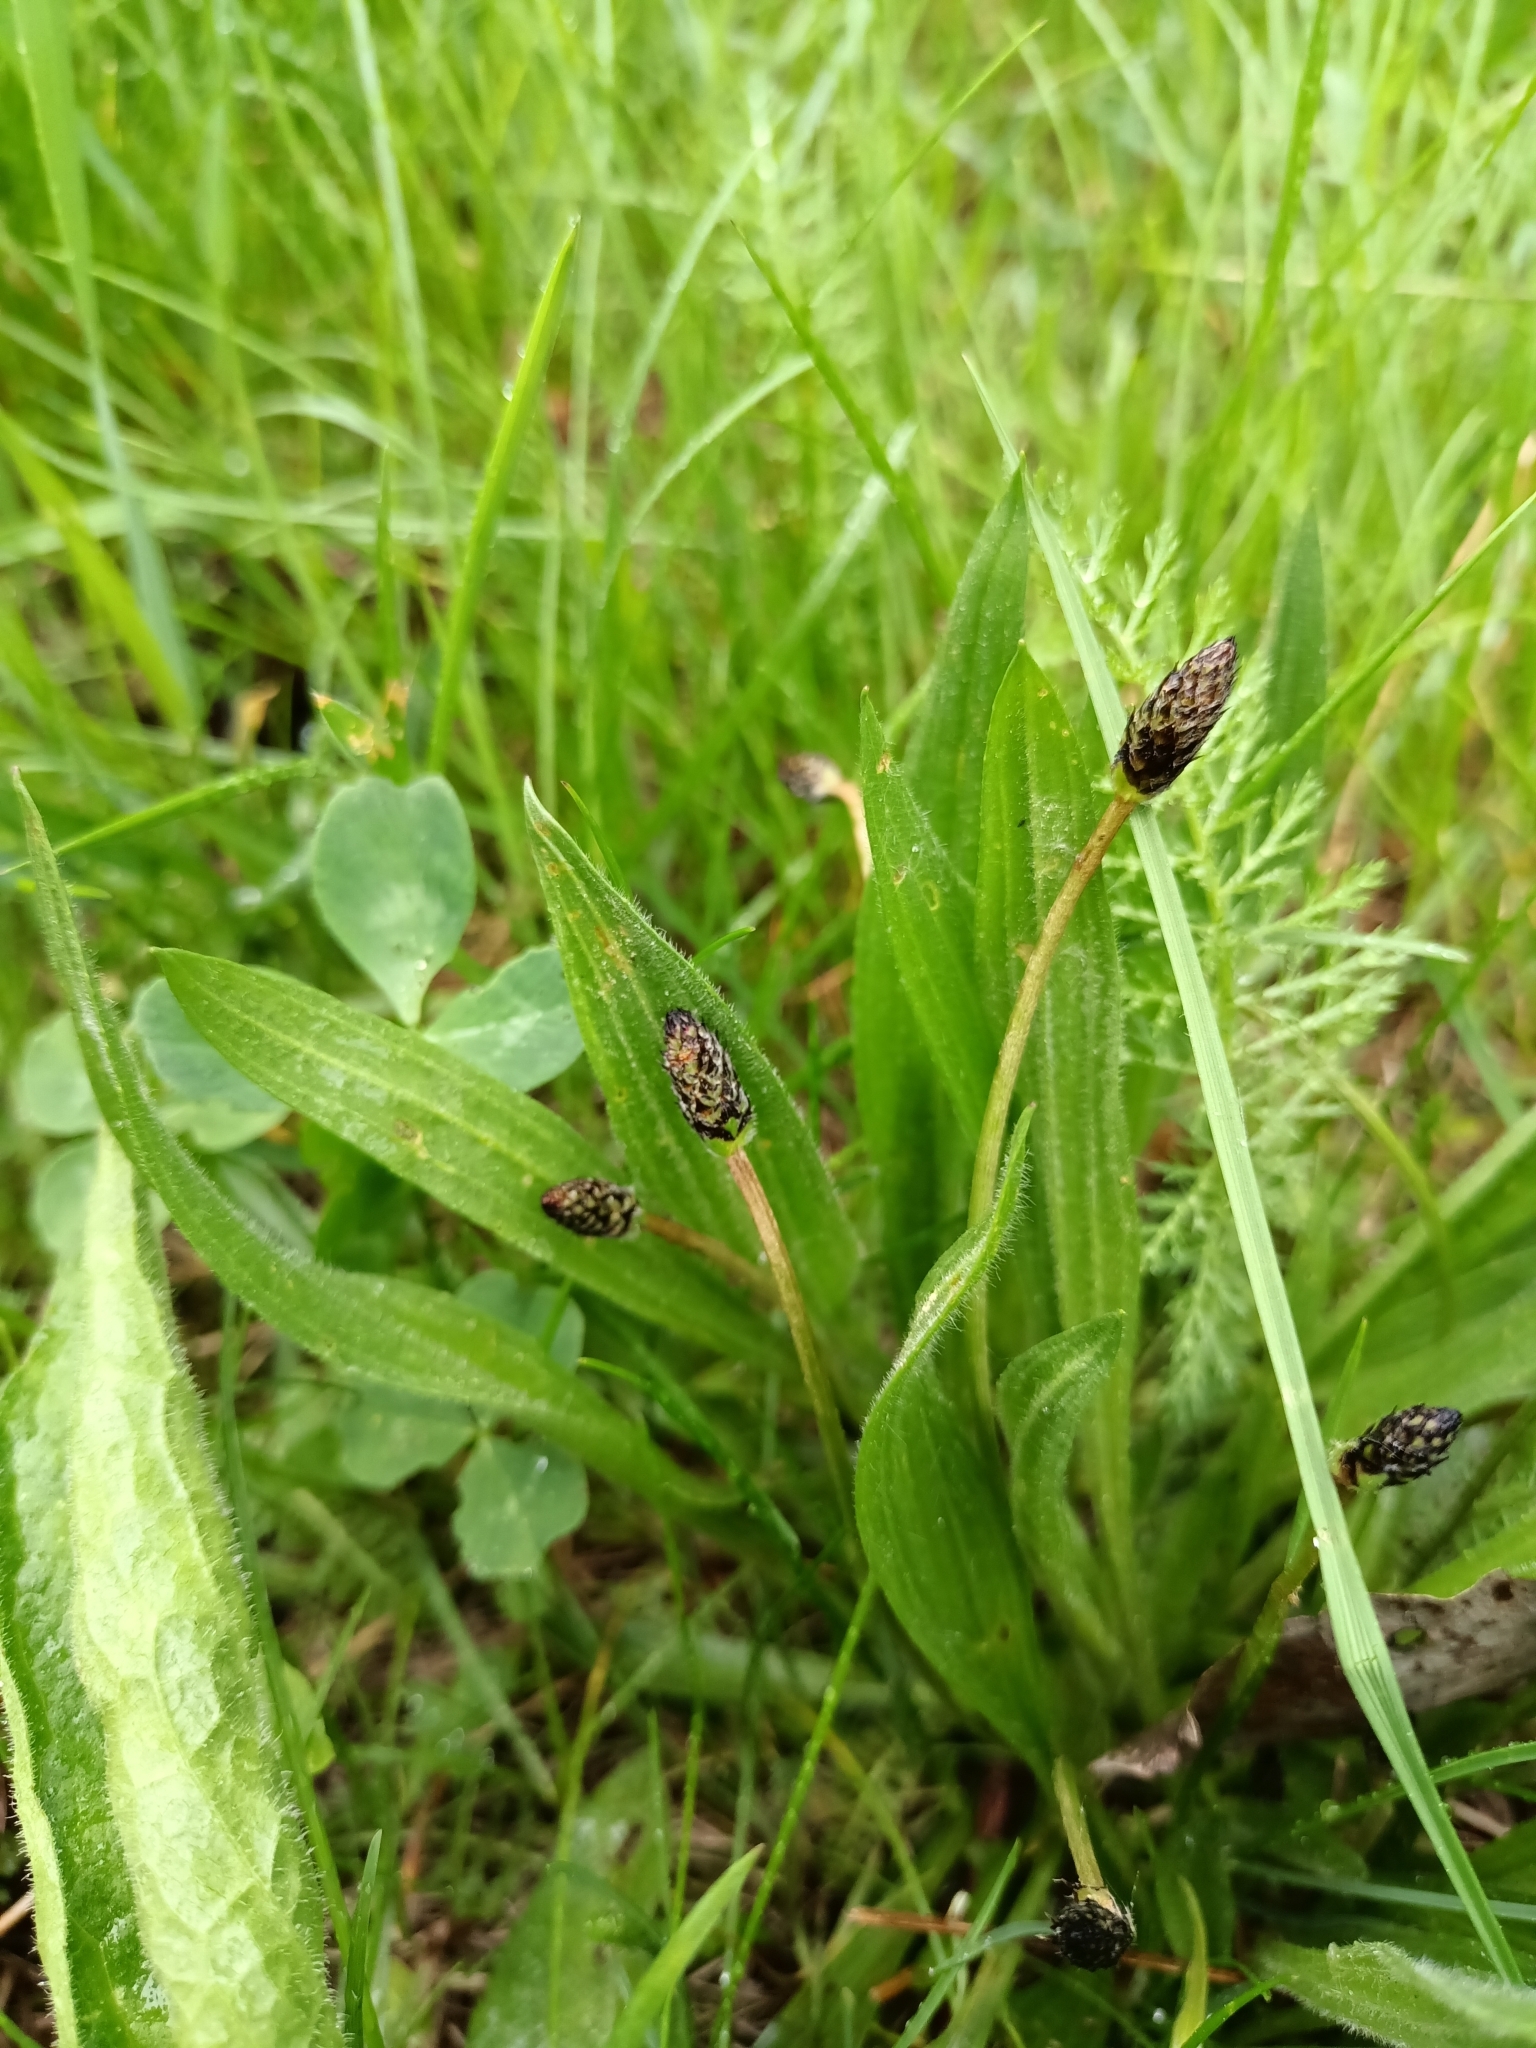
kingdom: Plantae
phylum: Tracheophyta
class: Magnoliopsida
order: Lamiales
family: Plantaginaceae
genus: Plantago
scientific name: Plantago lanceolata
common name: Ribwort plantain
